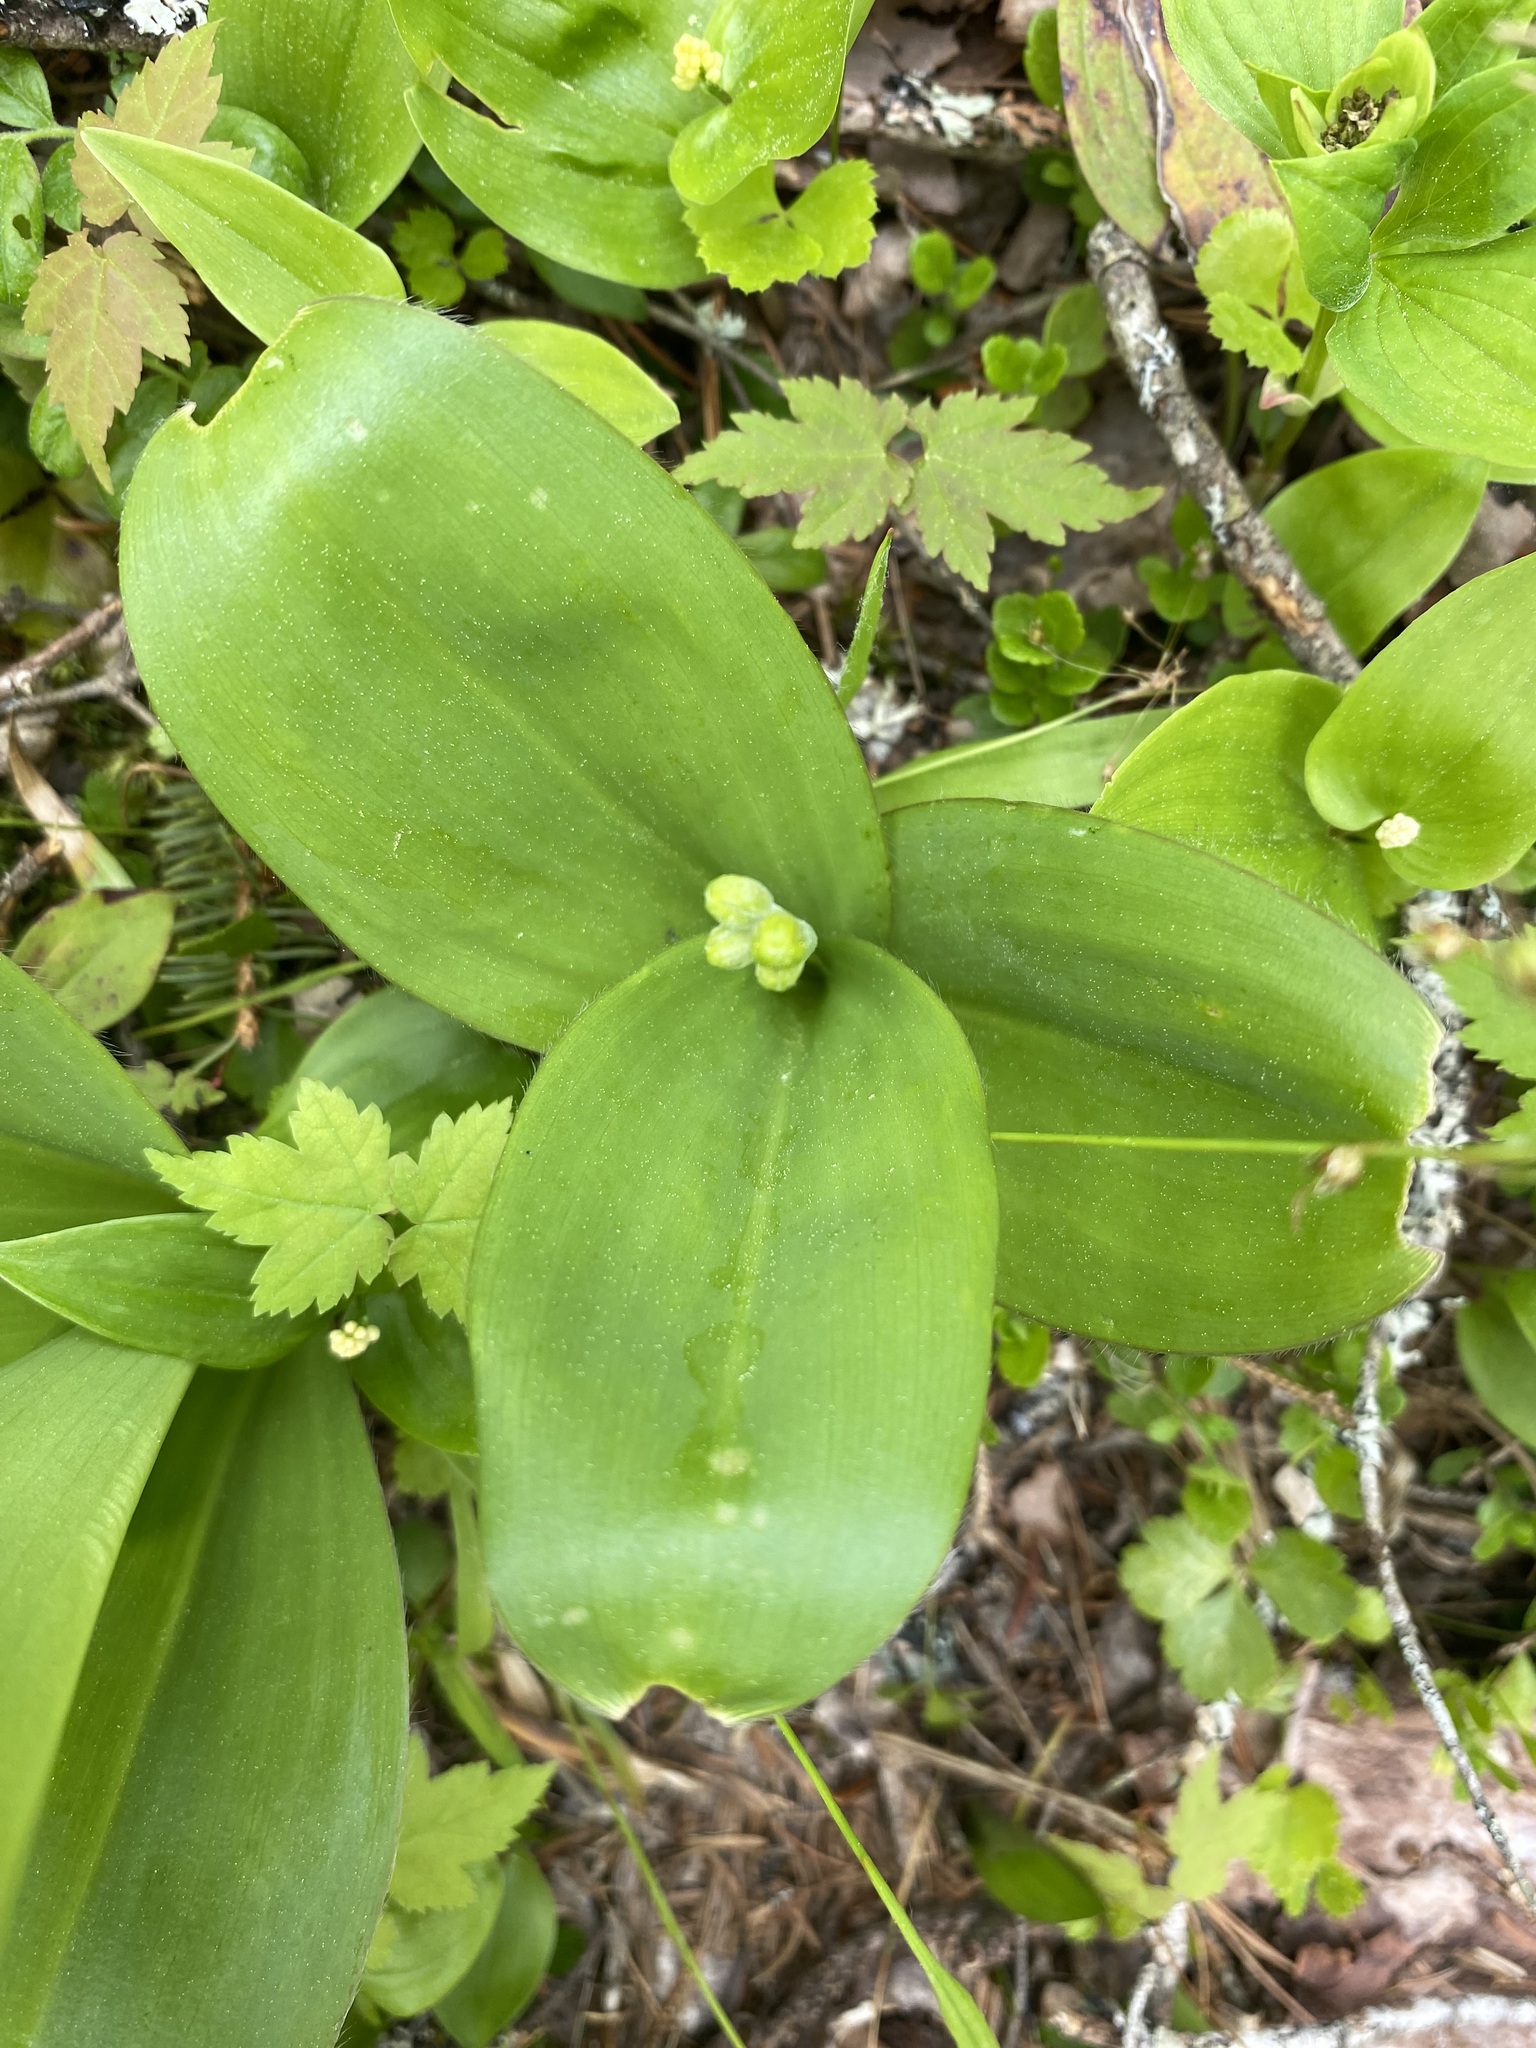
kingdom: Plantae
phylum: Tracheophyta
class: Liliopsida
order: Liliales
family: Liliaceae
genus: Clintonia
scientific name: Clintonia borealis
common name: Yellow clintonia
